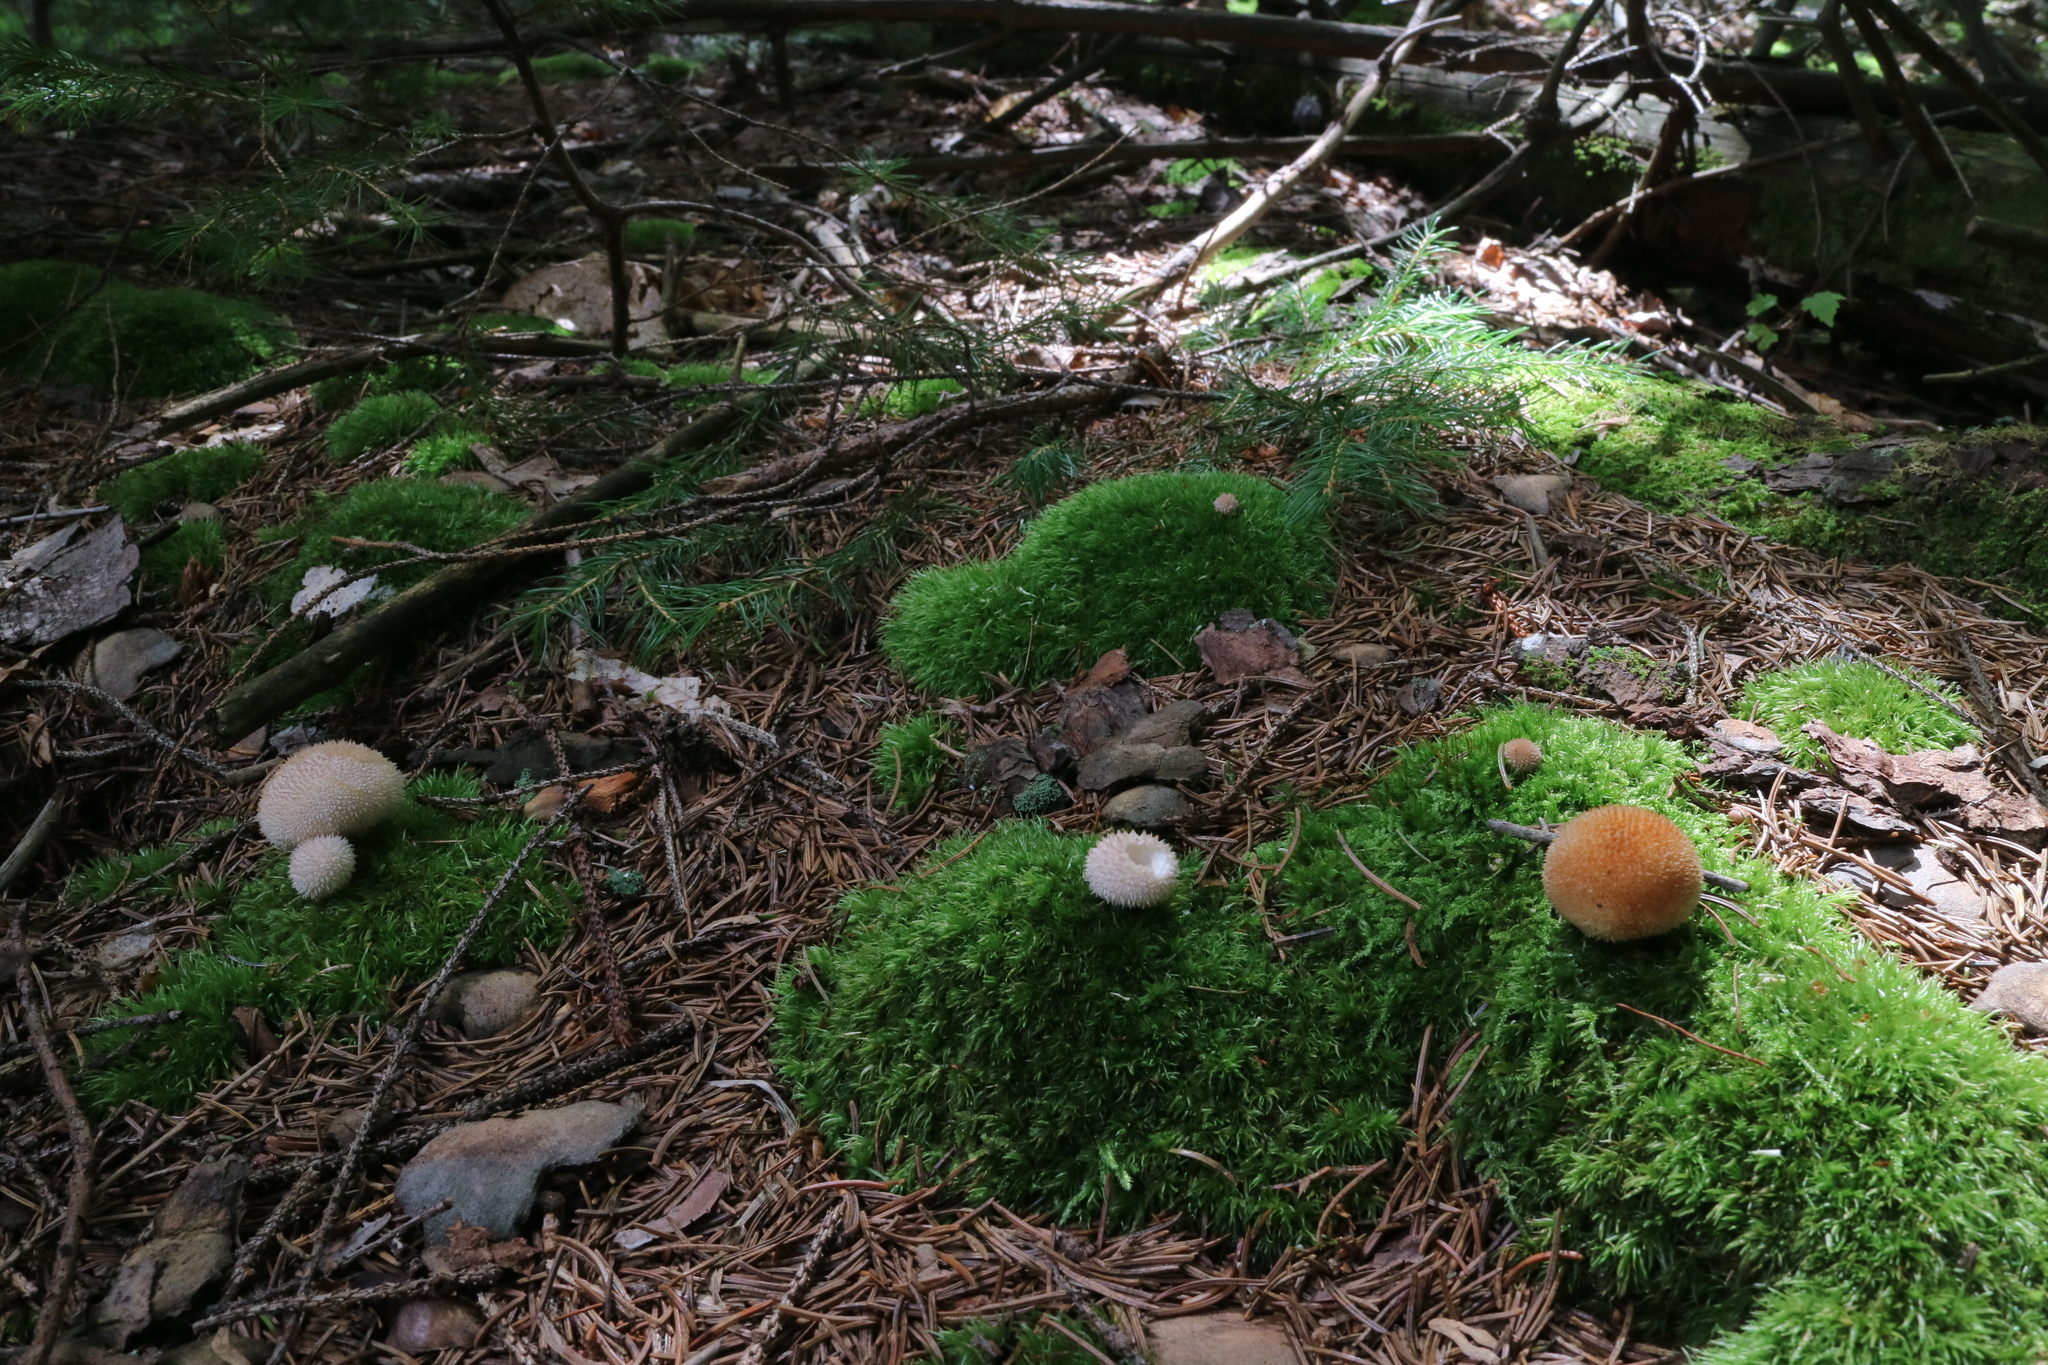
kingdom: Fungi
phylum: Basidiomycota
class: Agaricomycetes
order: Agaricales
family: Lycoperdaceae
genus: Lycoperdon
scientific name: Lycoperdon echinatum
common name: Hedgehog puffball
